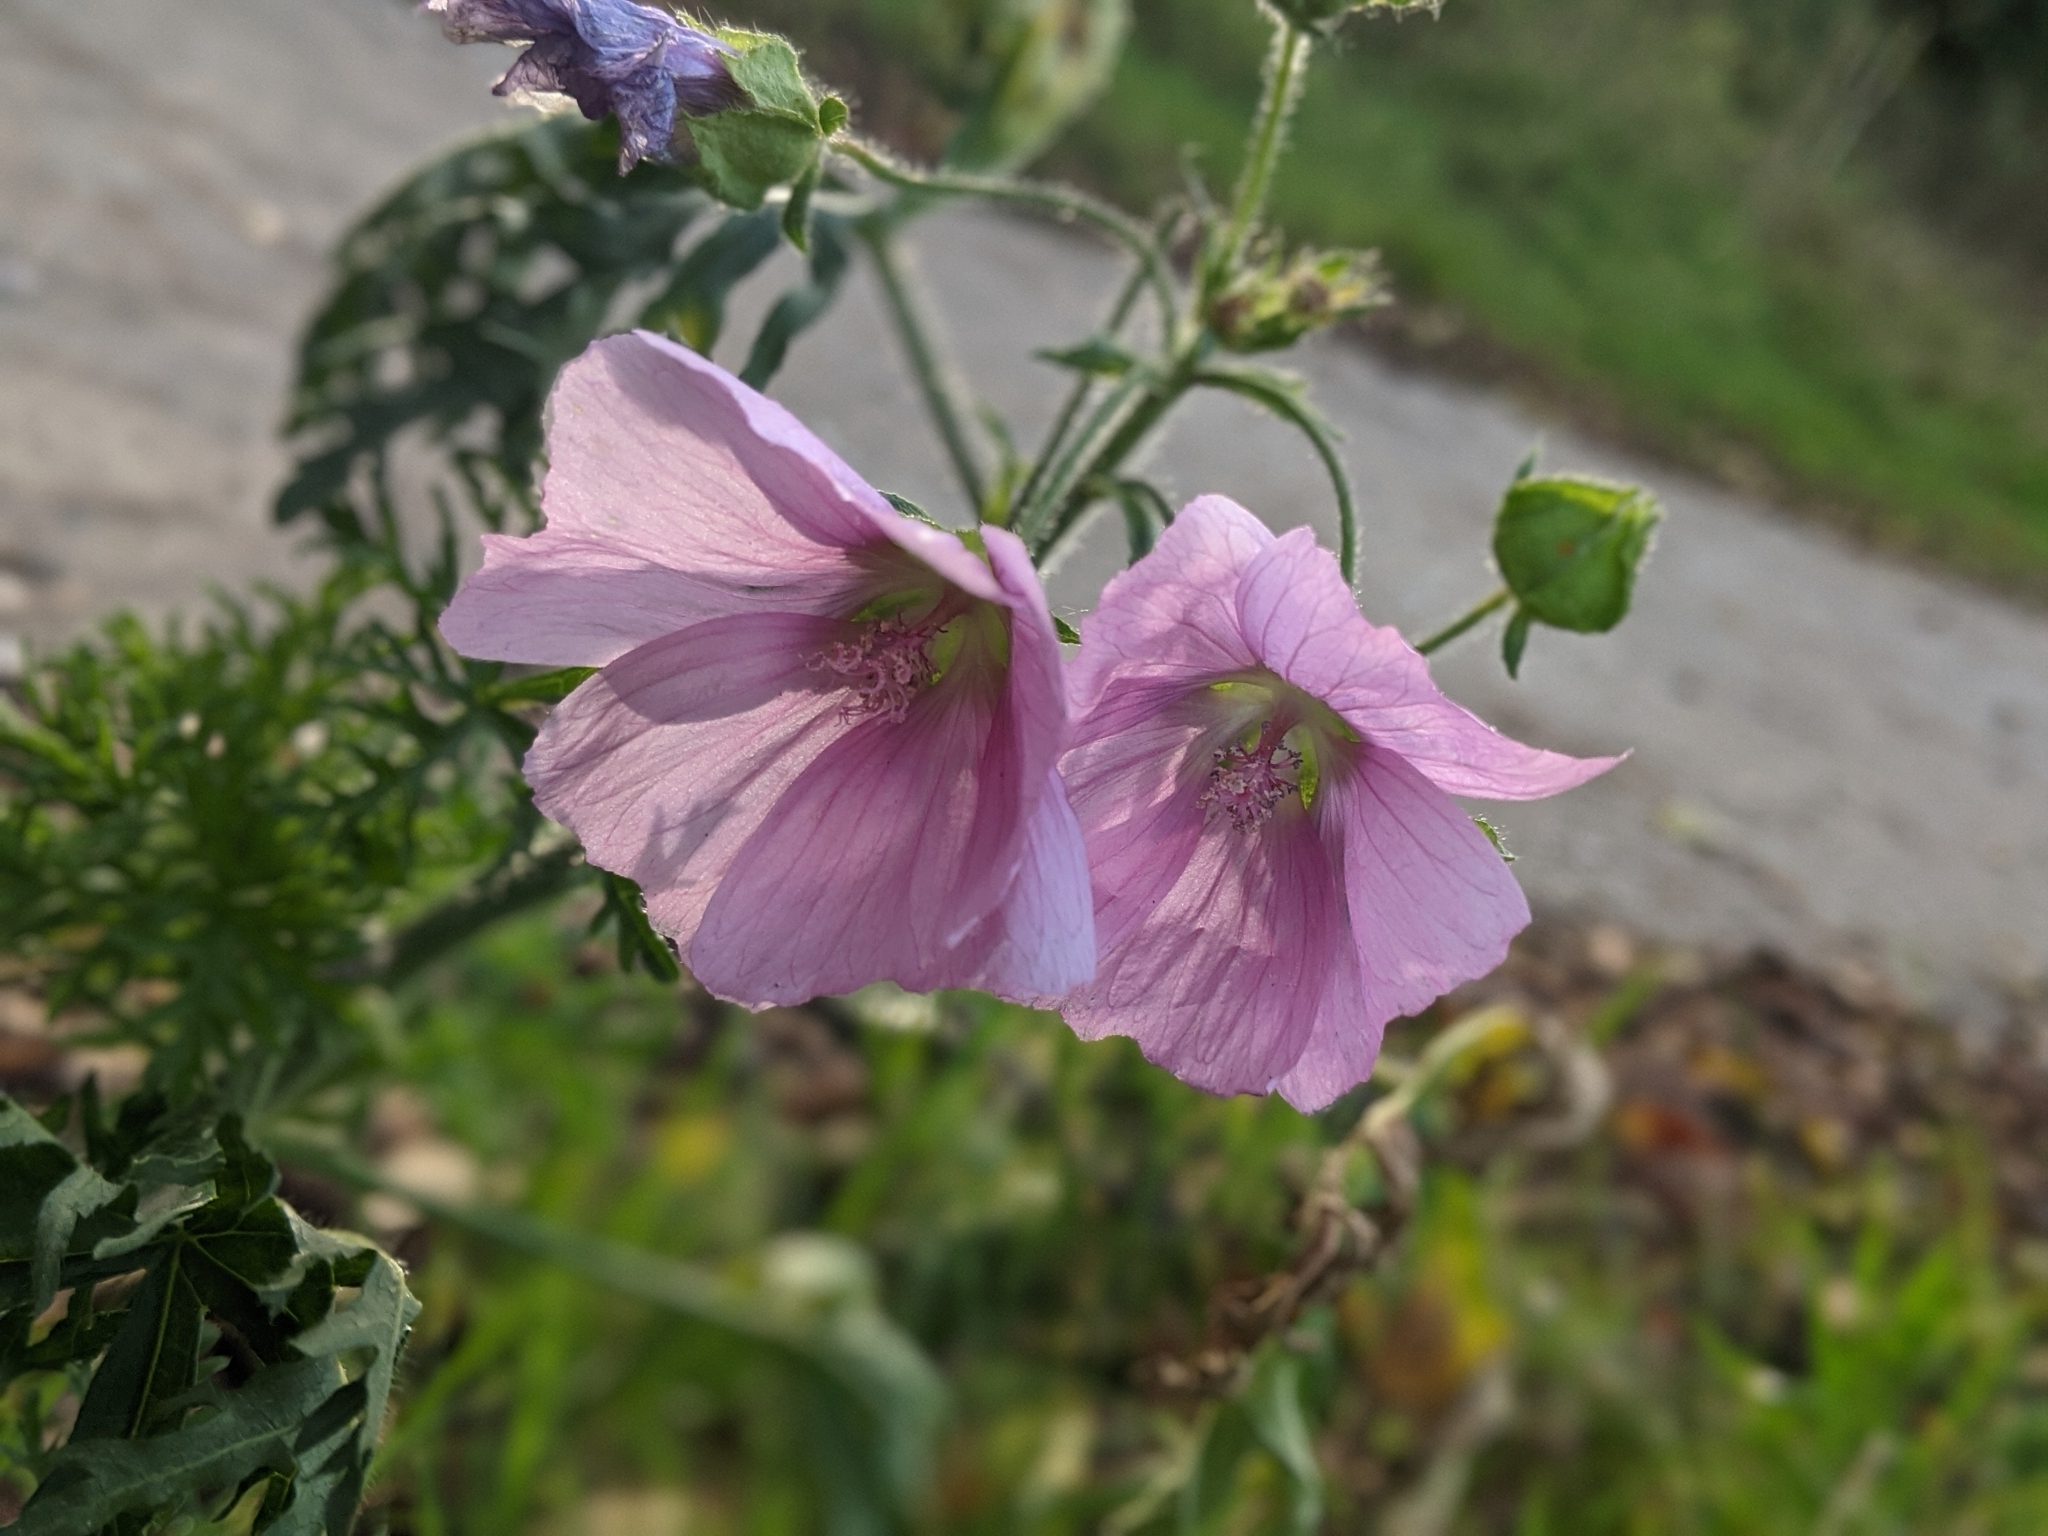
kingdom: Plantae
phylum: Tracheophyta
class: Magnoliopsida
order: Malvales
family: Malvaceae
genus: Malva
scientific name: Malva moschata
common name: Musk mallow
